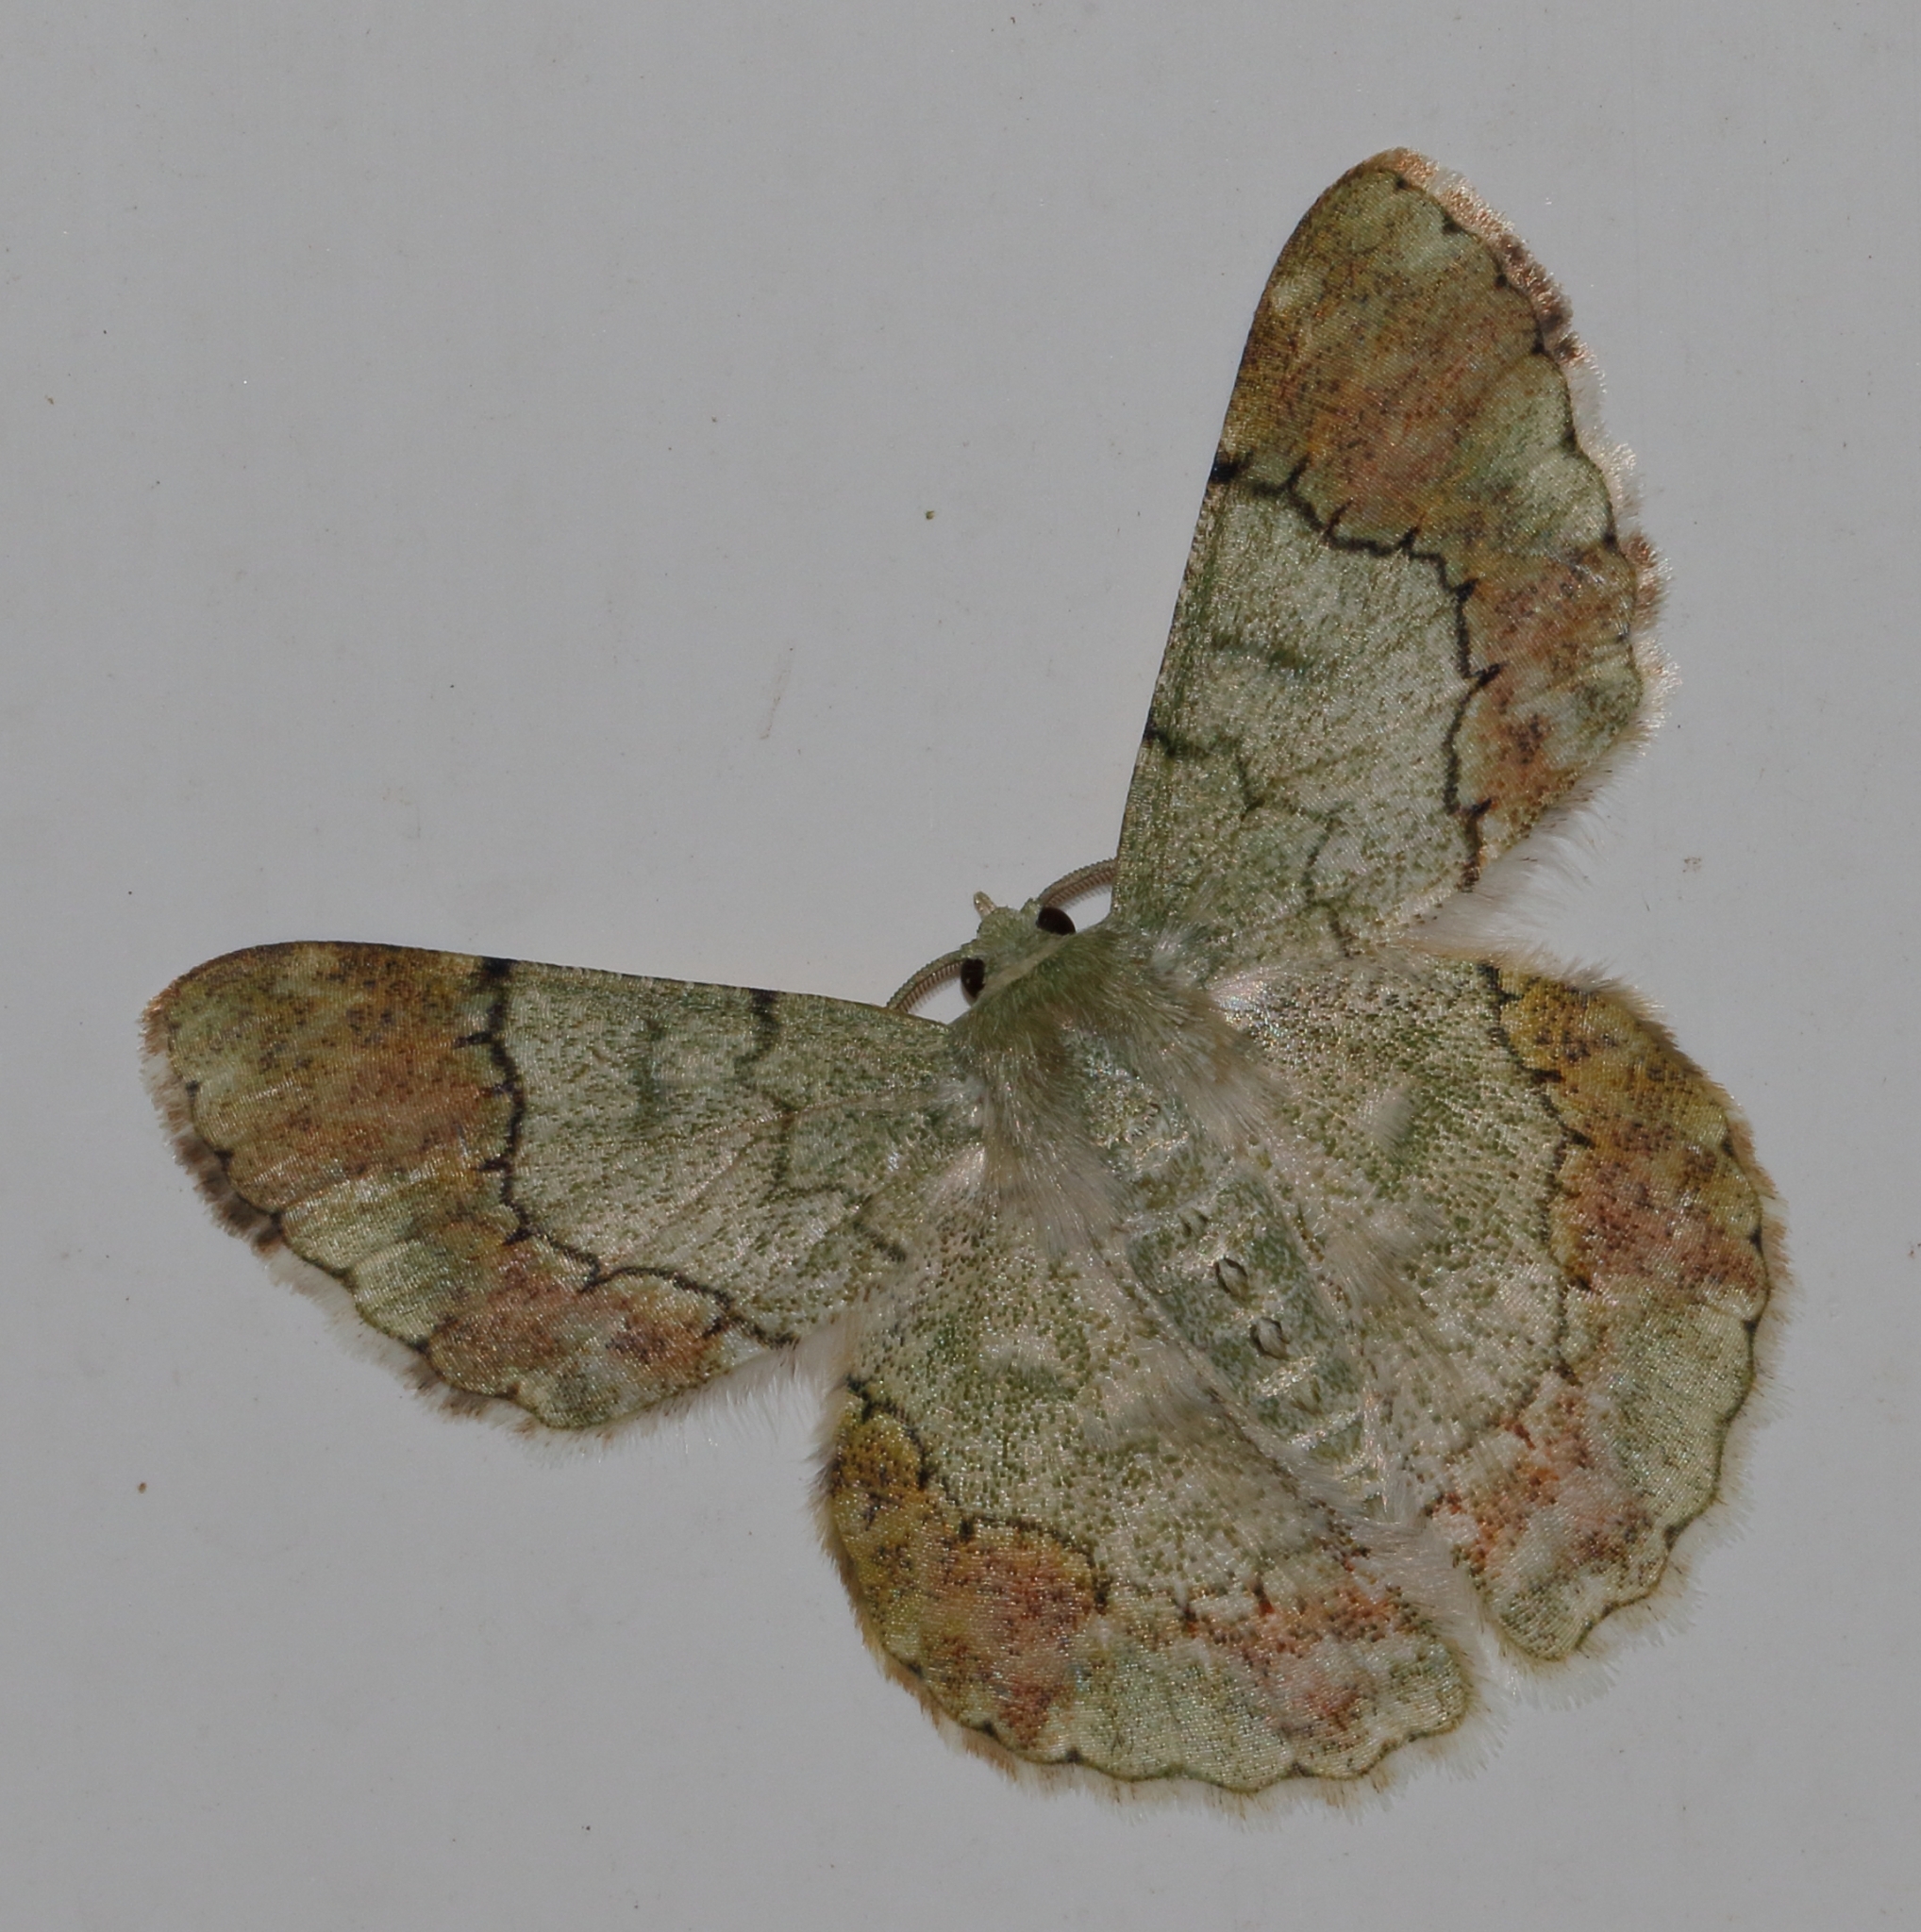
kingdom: Animalia
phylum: Arthropoda
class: Insecta
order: Lepidoptera
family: Geometridae
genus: Pingasa
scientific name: Pingasa ruginaria
